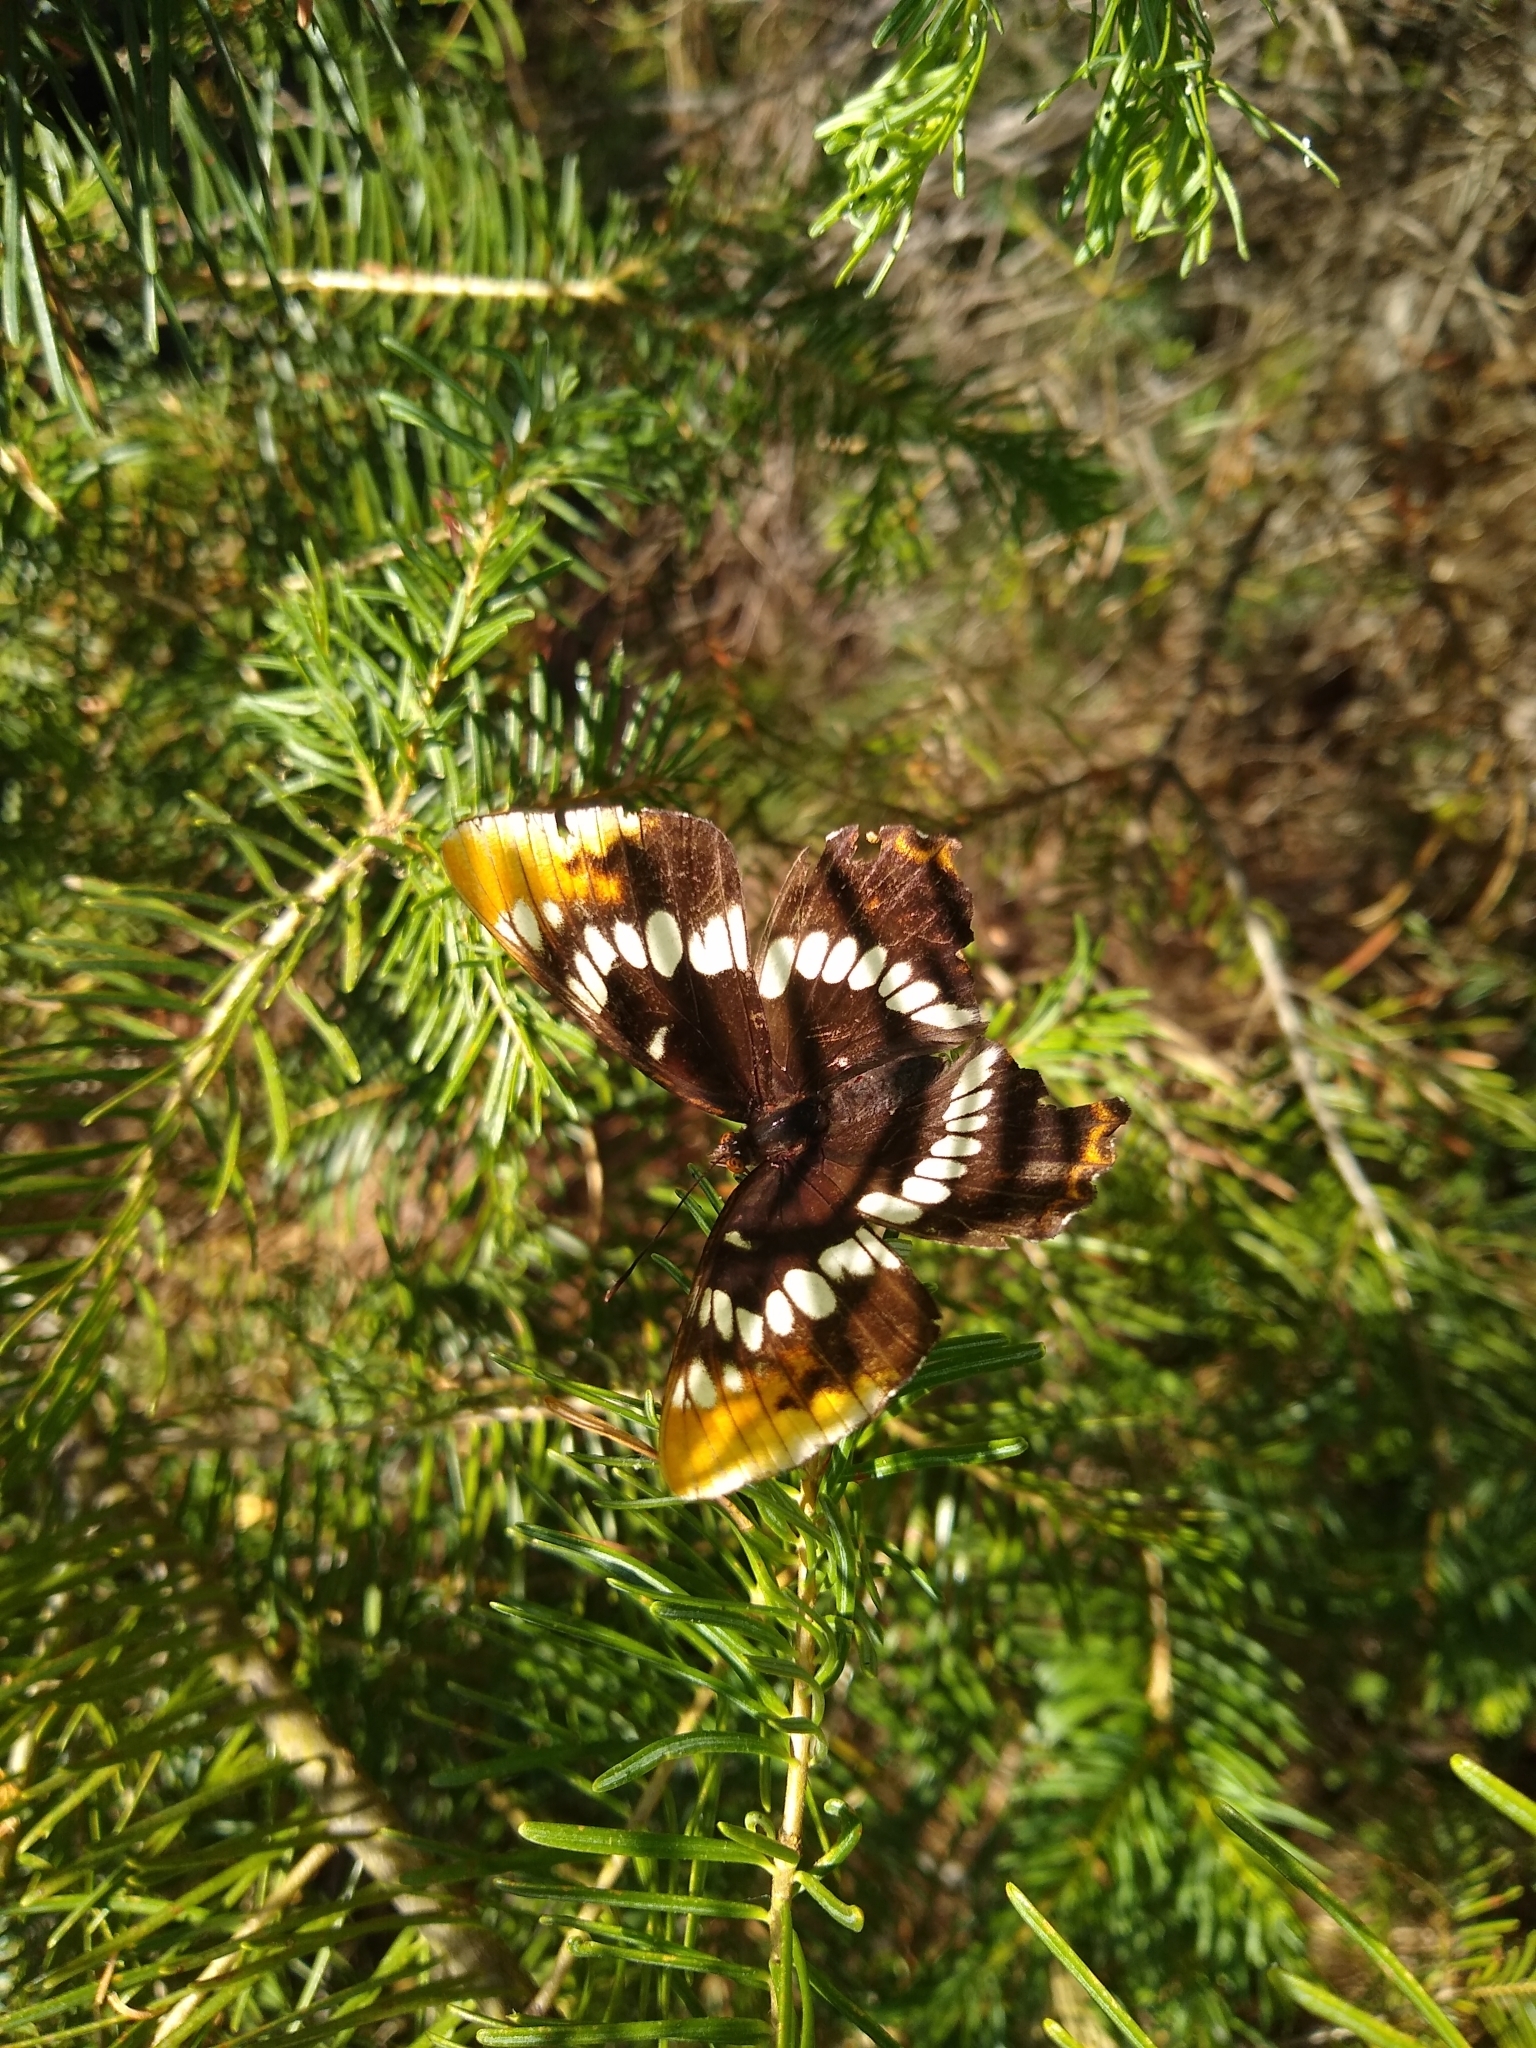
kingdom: Animalia
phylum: Arthropoda
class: Insecta
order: Lepidoptera
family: Nymphalidae
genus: Limenitis
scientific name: Limenitis lorquini
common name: Lorquin's admiral
